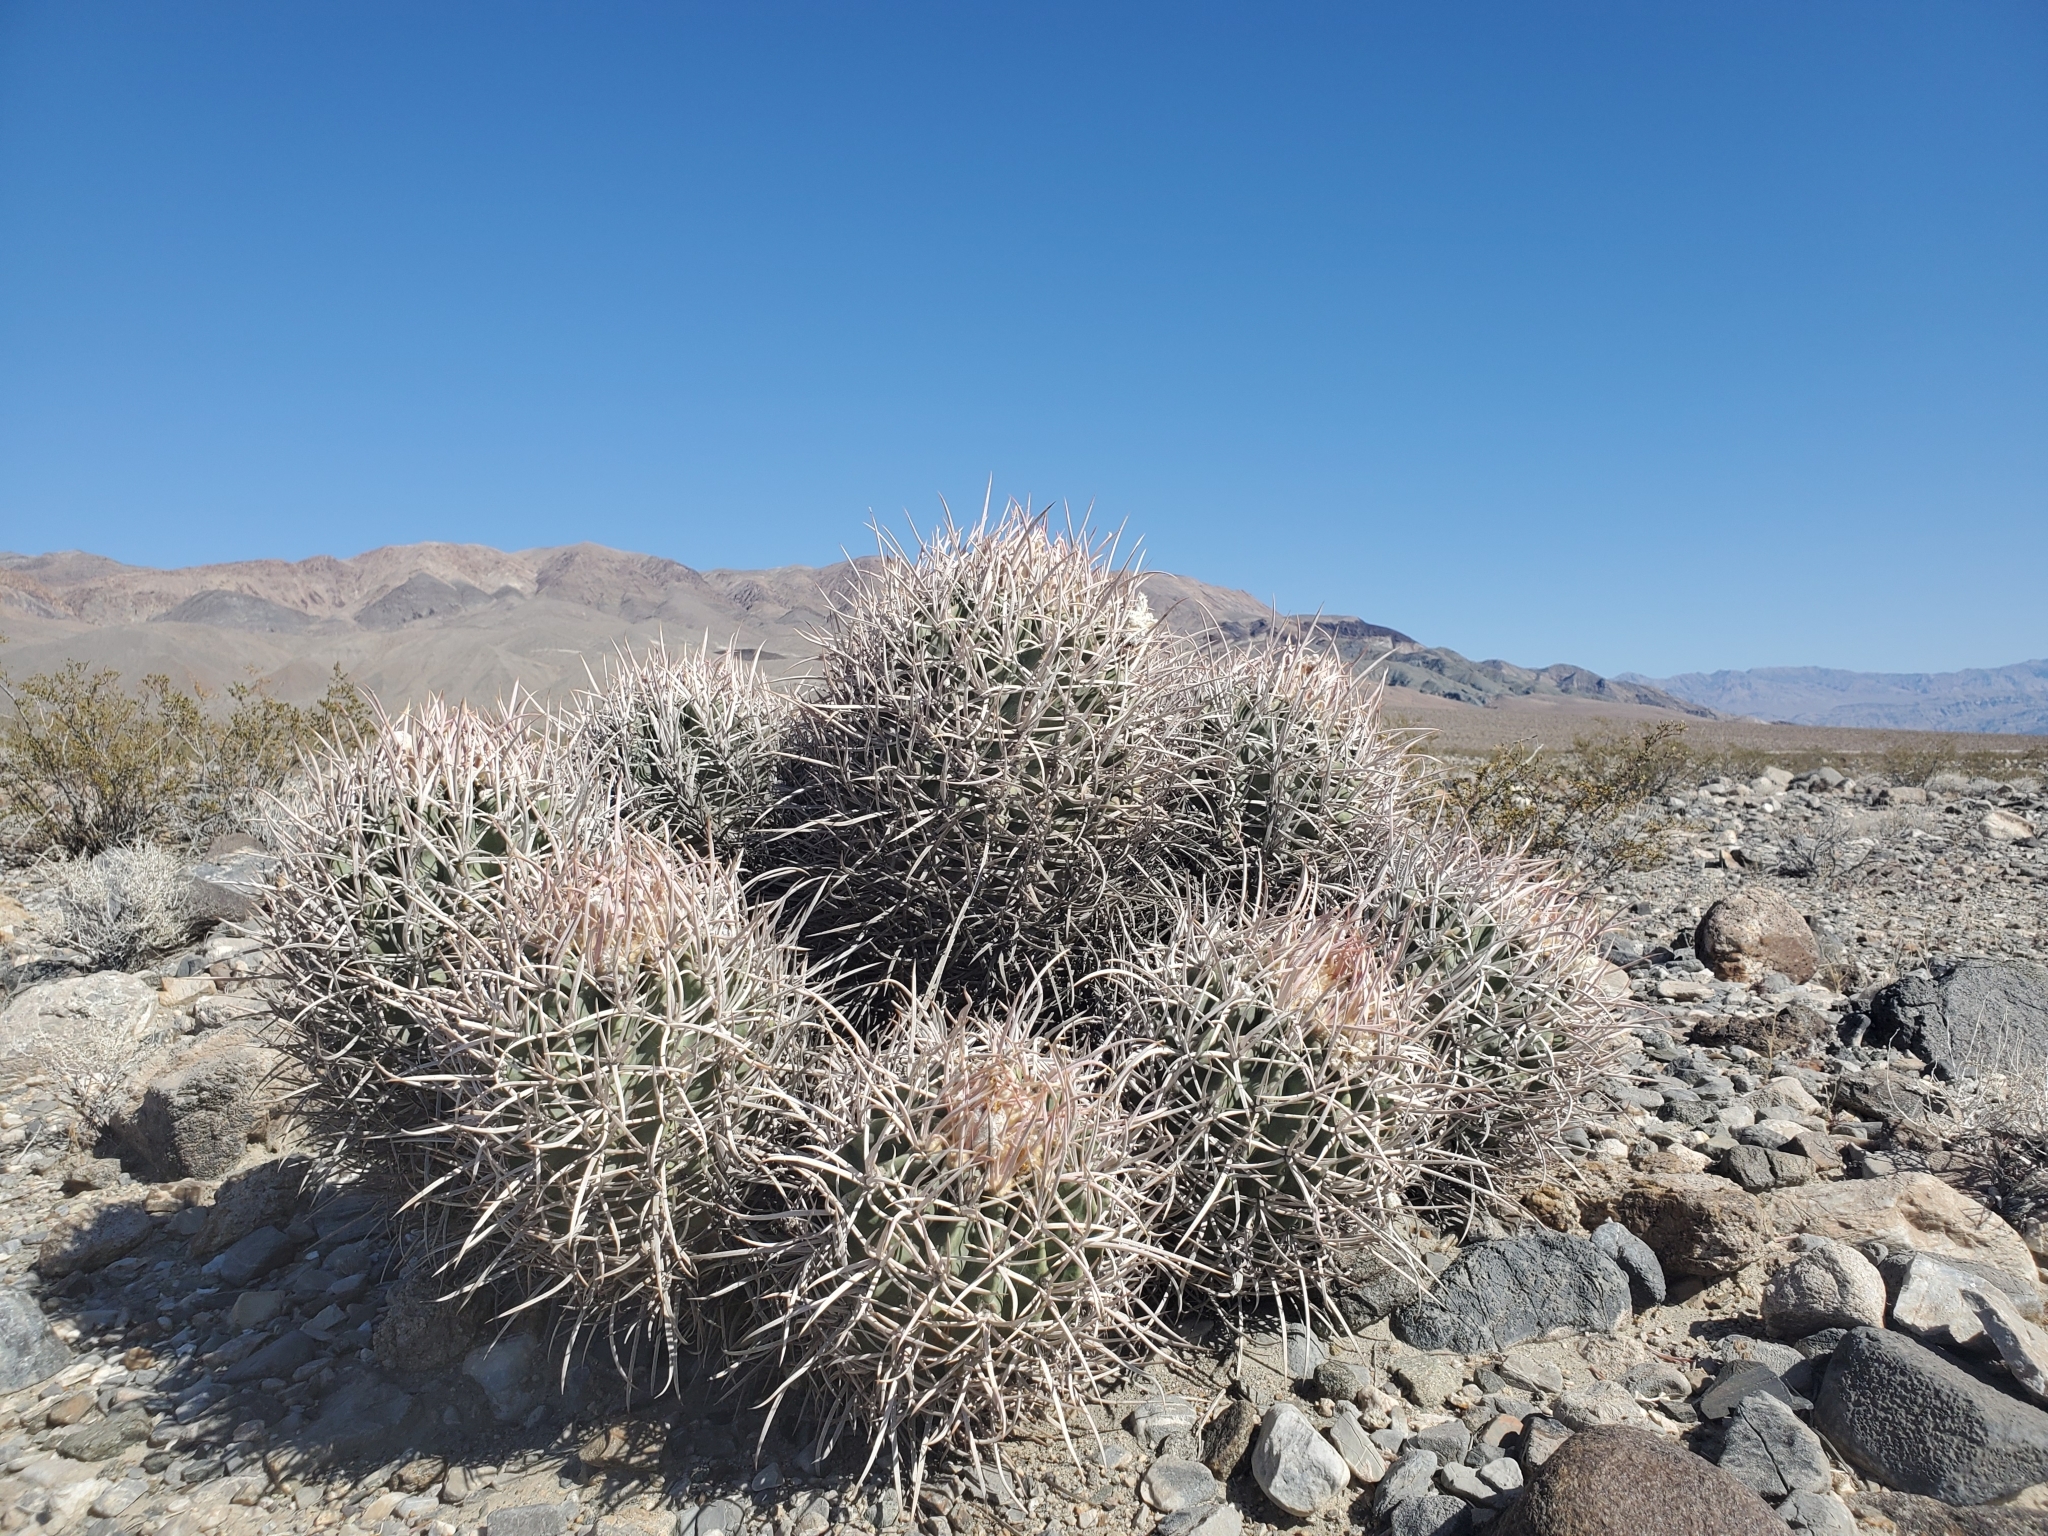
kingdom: Plantae
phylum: Tracheophyta
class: Magnoliopsida
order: Caryophyllales
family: Cactaceae
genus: Echinocactus
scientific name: Echinocactus polycephalus
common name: Cottontop cactus
